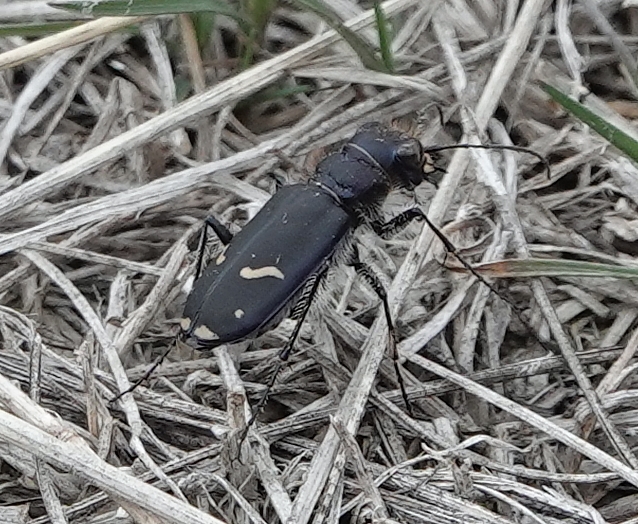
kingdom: Animalia
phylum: Arthropoda
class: Insecta
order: Coleoptera
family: Carabidae
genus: Cicindela
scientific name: Cicindela purpurea
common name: Cow path tiger beetle
